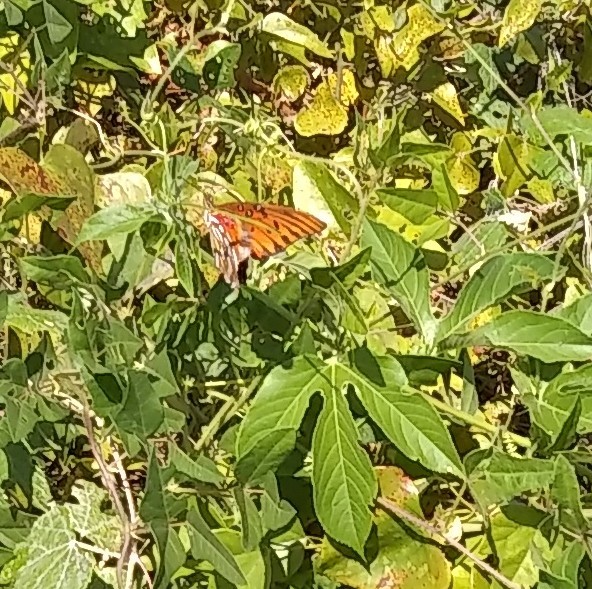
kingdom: Animalia
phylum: Arthropoda
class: Insecta
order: Lepidoptera
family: Nymphalidae
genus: Dione
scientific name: Dione vanillae
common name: Gulf fritillary
